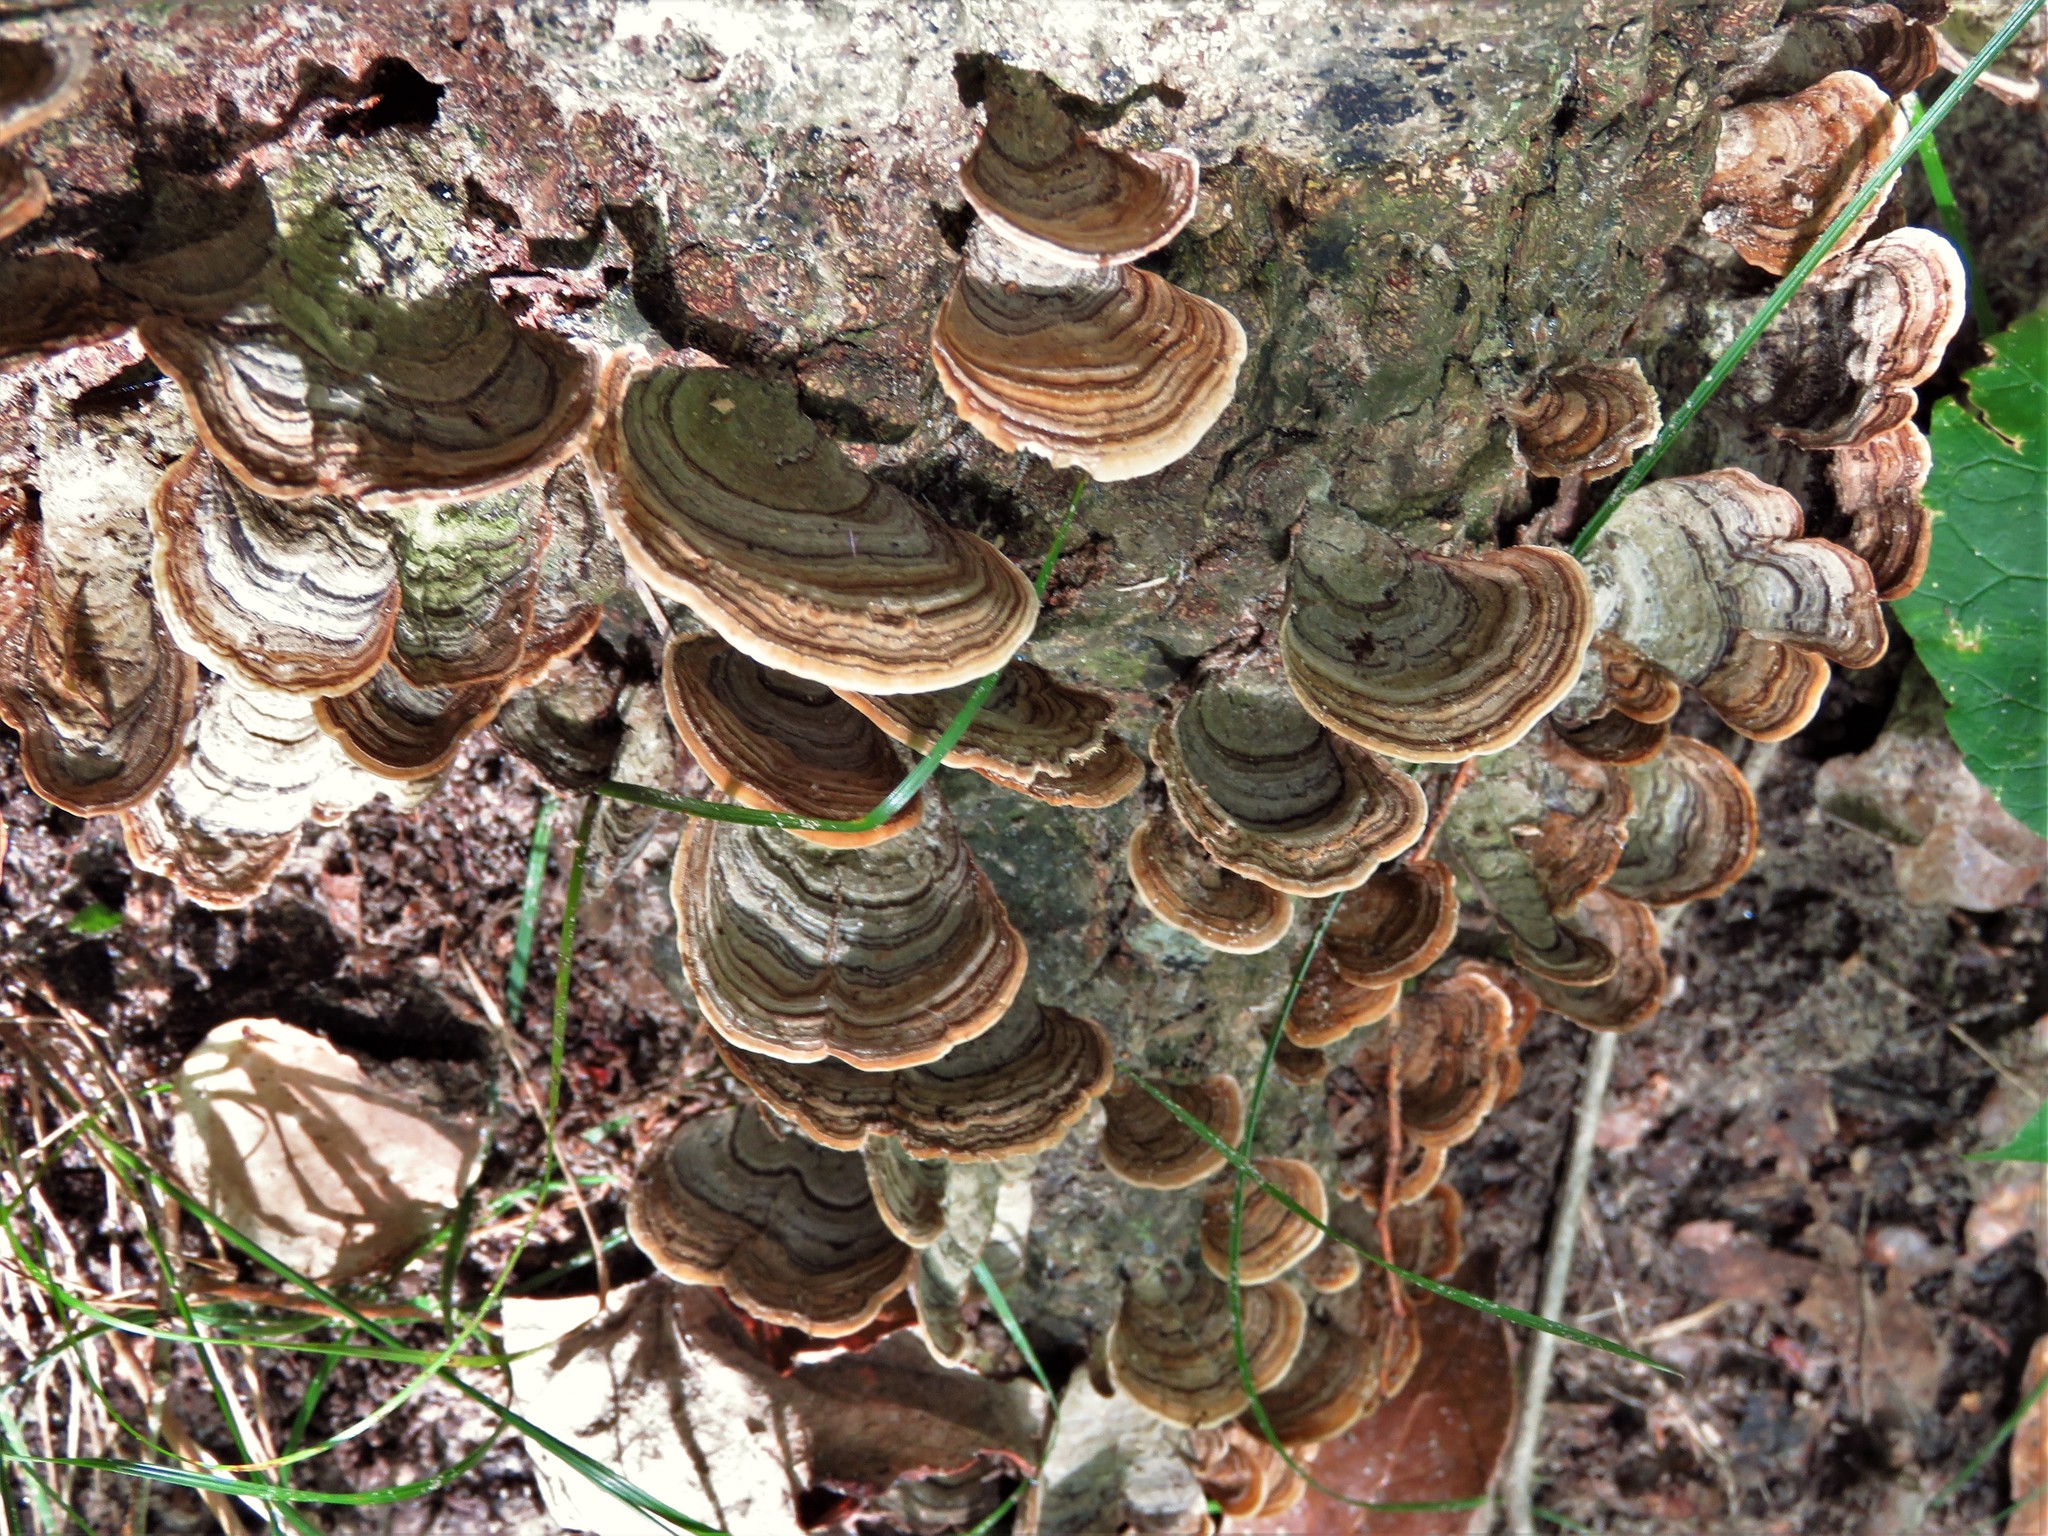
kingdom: Fungi
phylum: Basidiomycota
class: Agaricomycetes
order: Russulales
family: Stereaceae
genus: Stereum
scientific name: Stereum ostrea
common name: False turkeytail
